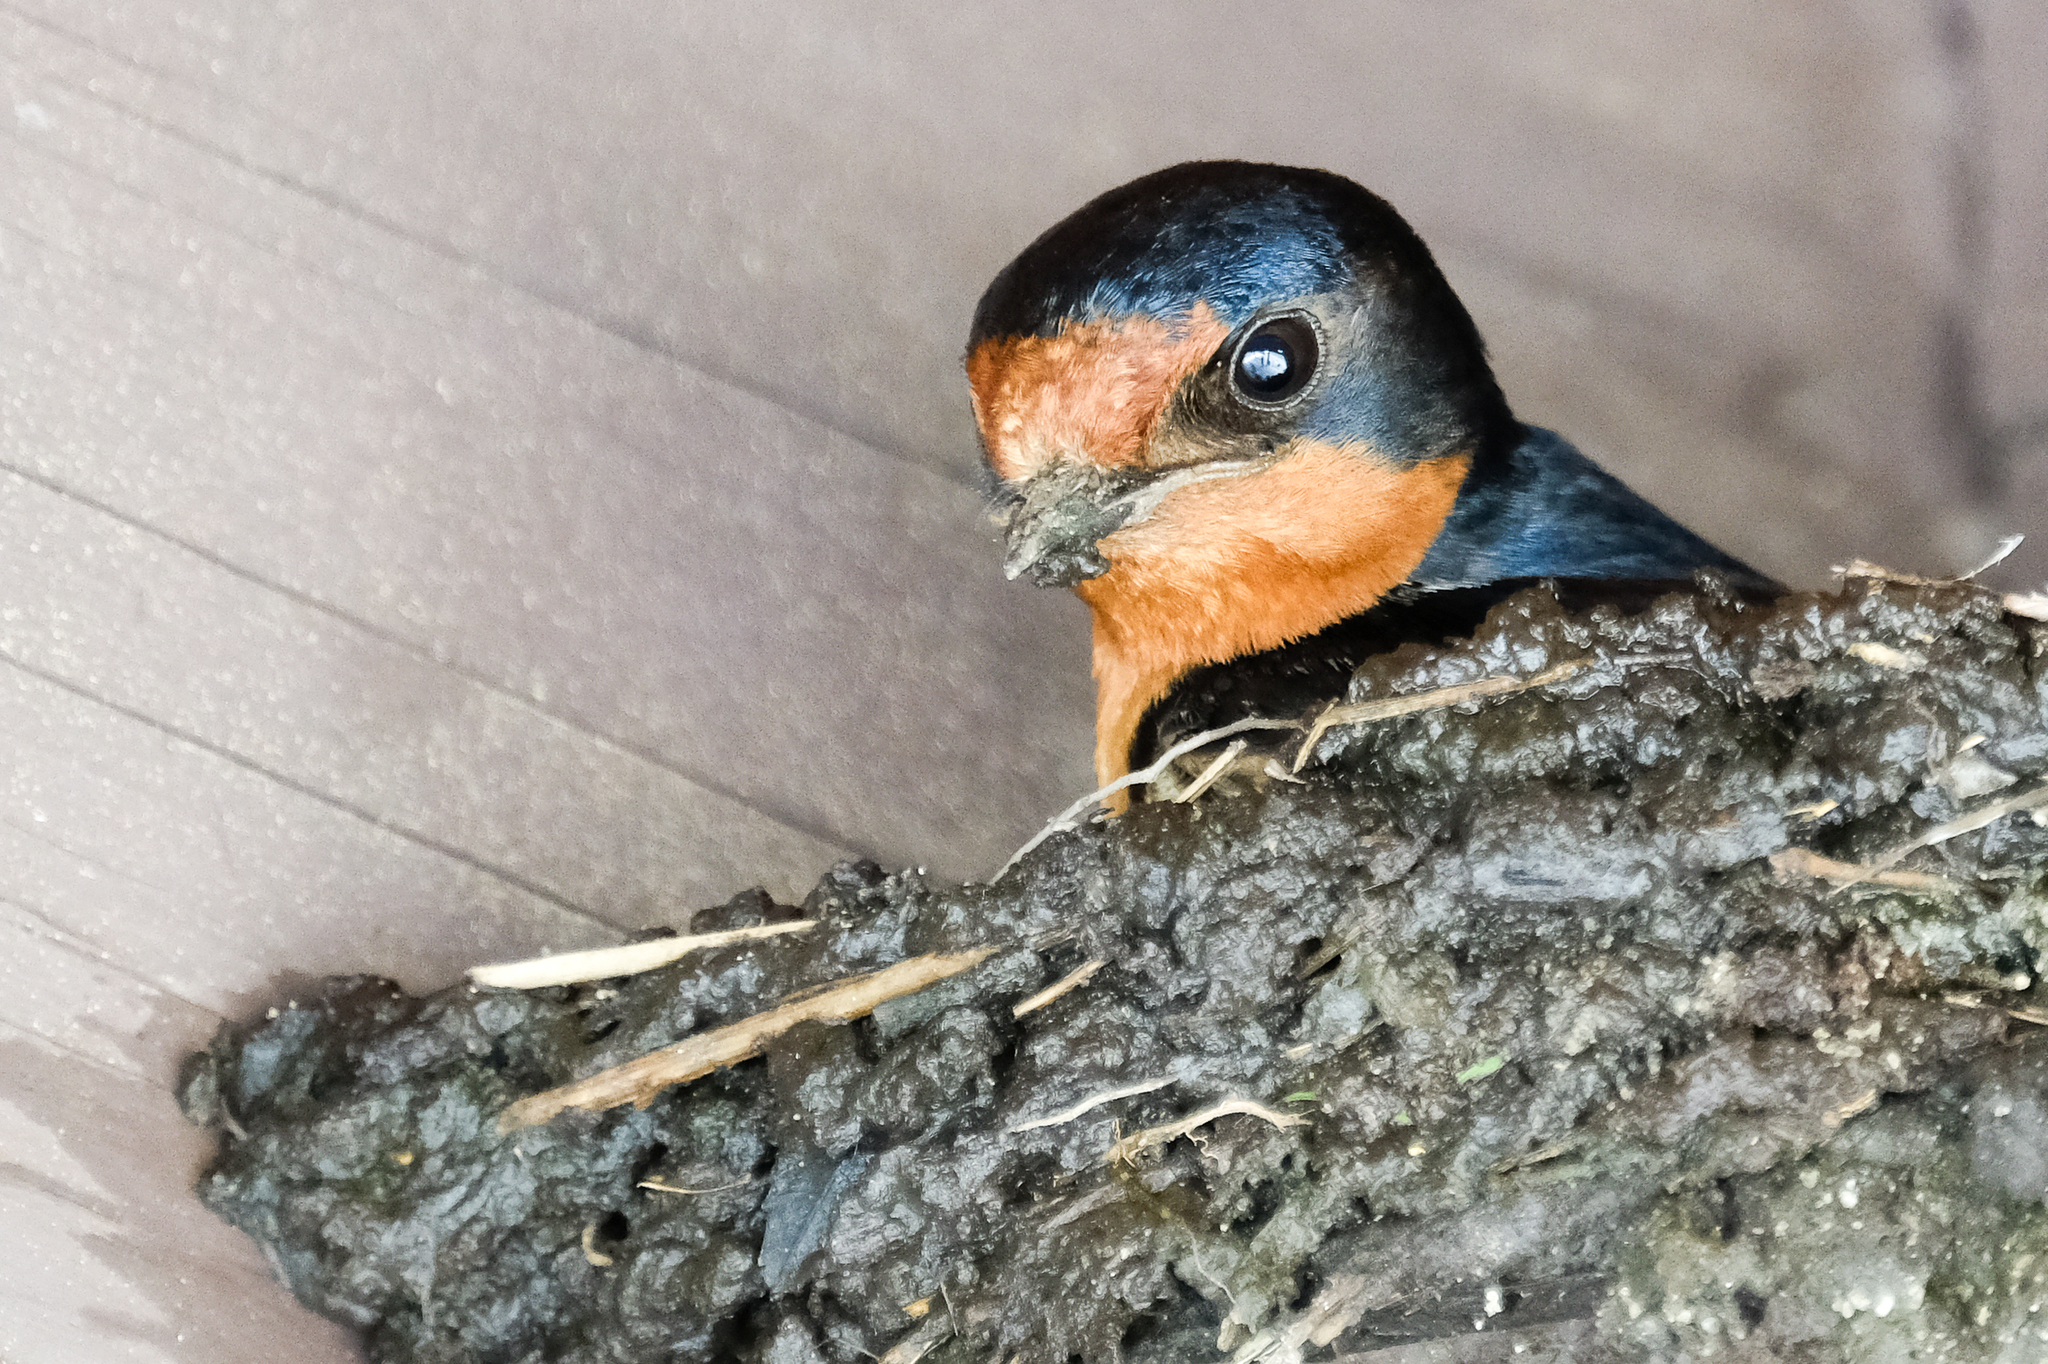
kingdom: Animalia
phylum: Chordata
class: Aves
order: Passeriformes
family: Hirundinidae
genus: Hirundo
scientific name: Hirundo rustica
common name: Barn swallow
